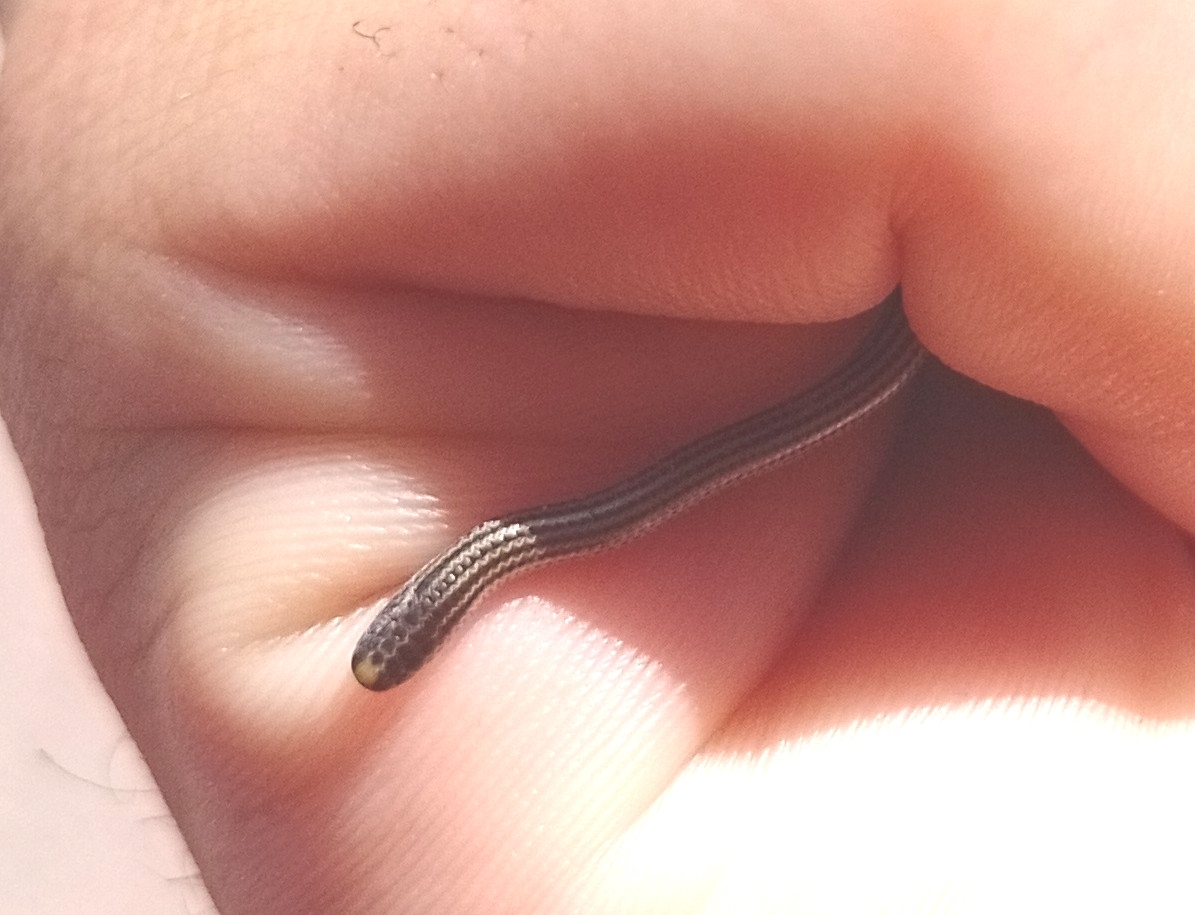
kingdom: Animalia
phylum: Chordata
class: Squamata
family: Leptotyphlopidae
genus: Epictia
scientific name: Epictia albipuncta
